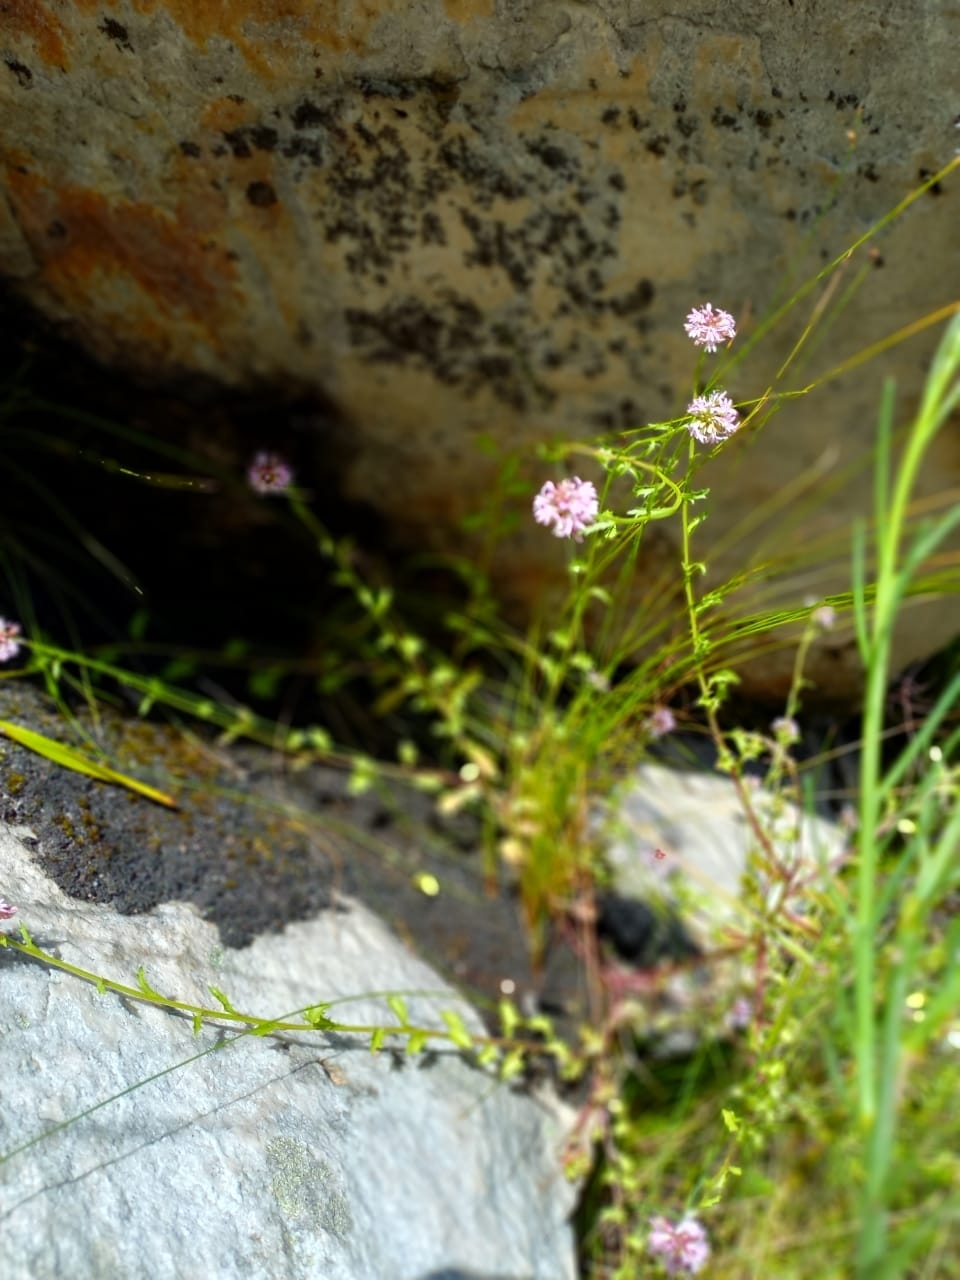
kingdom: Plantae
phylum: Tracheophyta
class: Magnoliopsida
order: Asterales
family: Campanulaceae
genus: Lobelia
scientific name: Lobelia jasionoides
